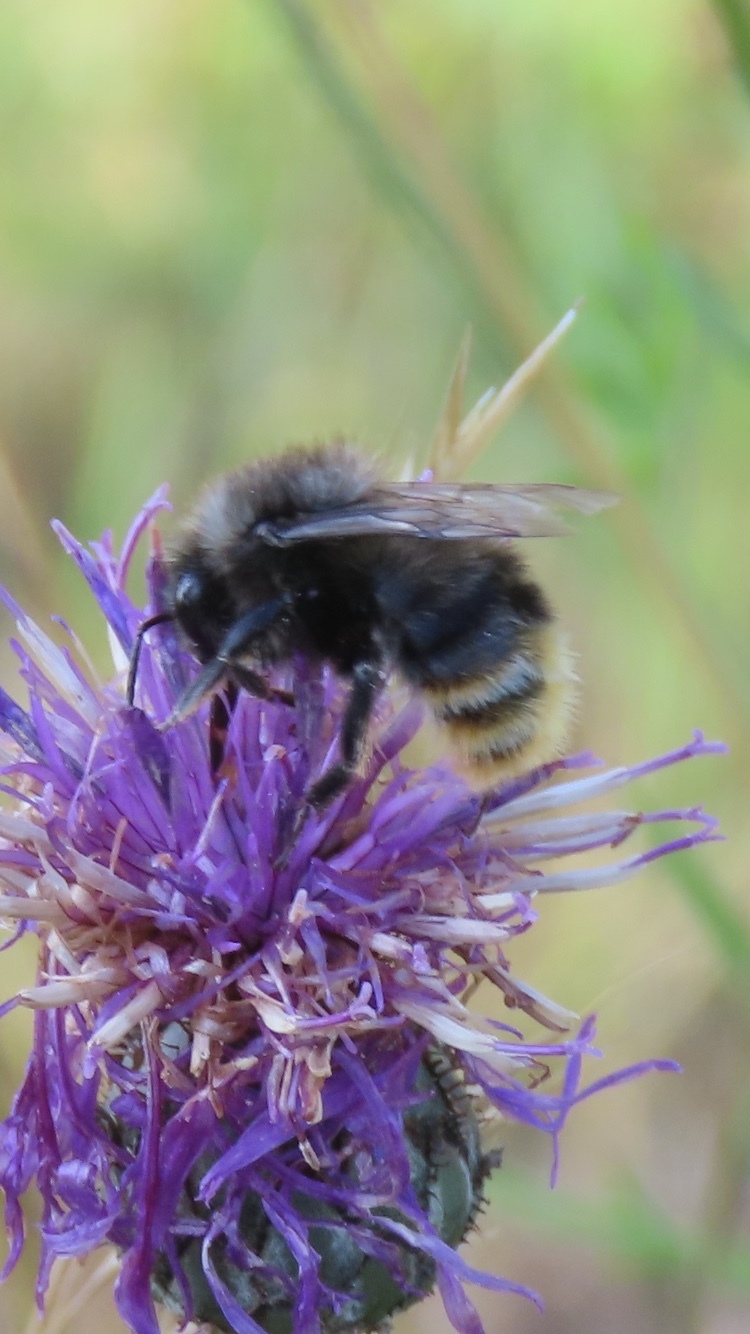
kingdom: Animalia
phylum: Arthropoda
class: Insecta
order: Hymenoptera
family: Apidae
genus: Bombus
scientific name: Bombus ruderarius
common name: Red-shanked carder-bee
